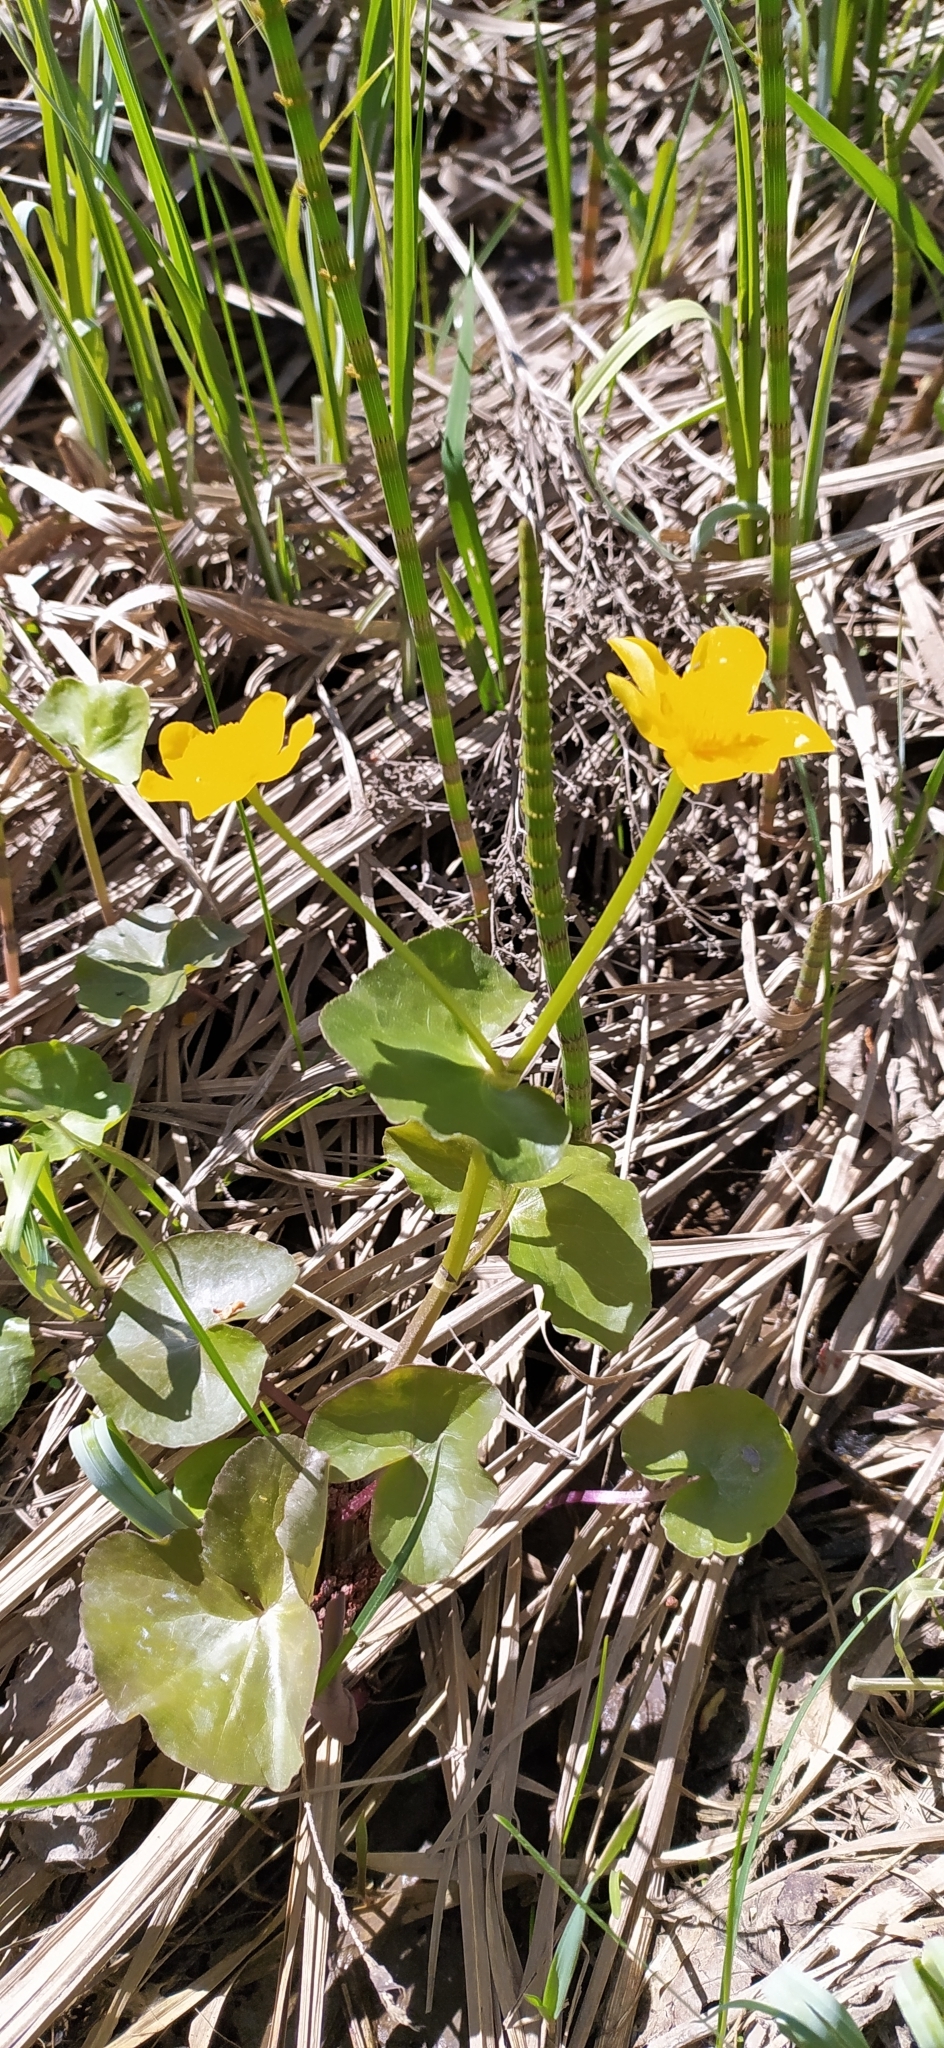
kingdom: Plantae
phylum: Tracheophyta
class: Magnoliopsida
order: Ranunculales
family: Ranunculaceae
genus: Caltha
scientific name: Caltha palustris
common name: Marsh marigold
